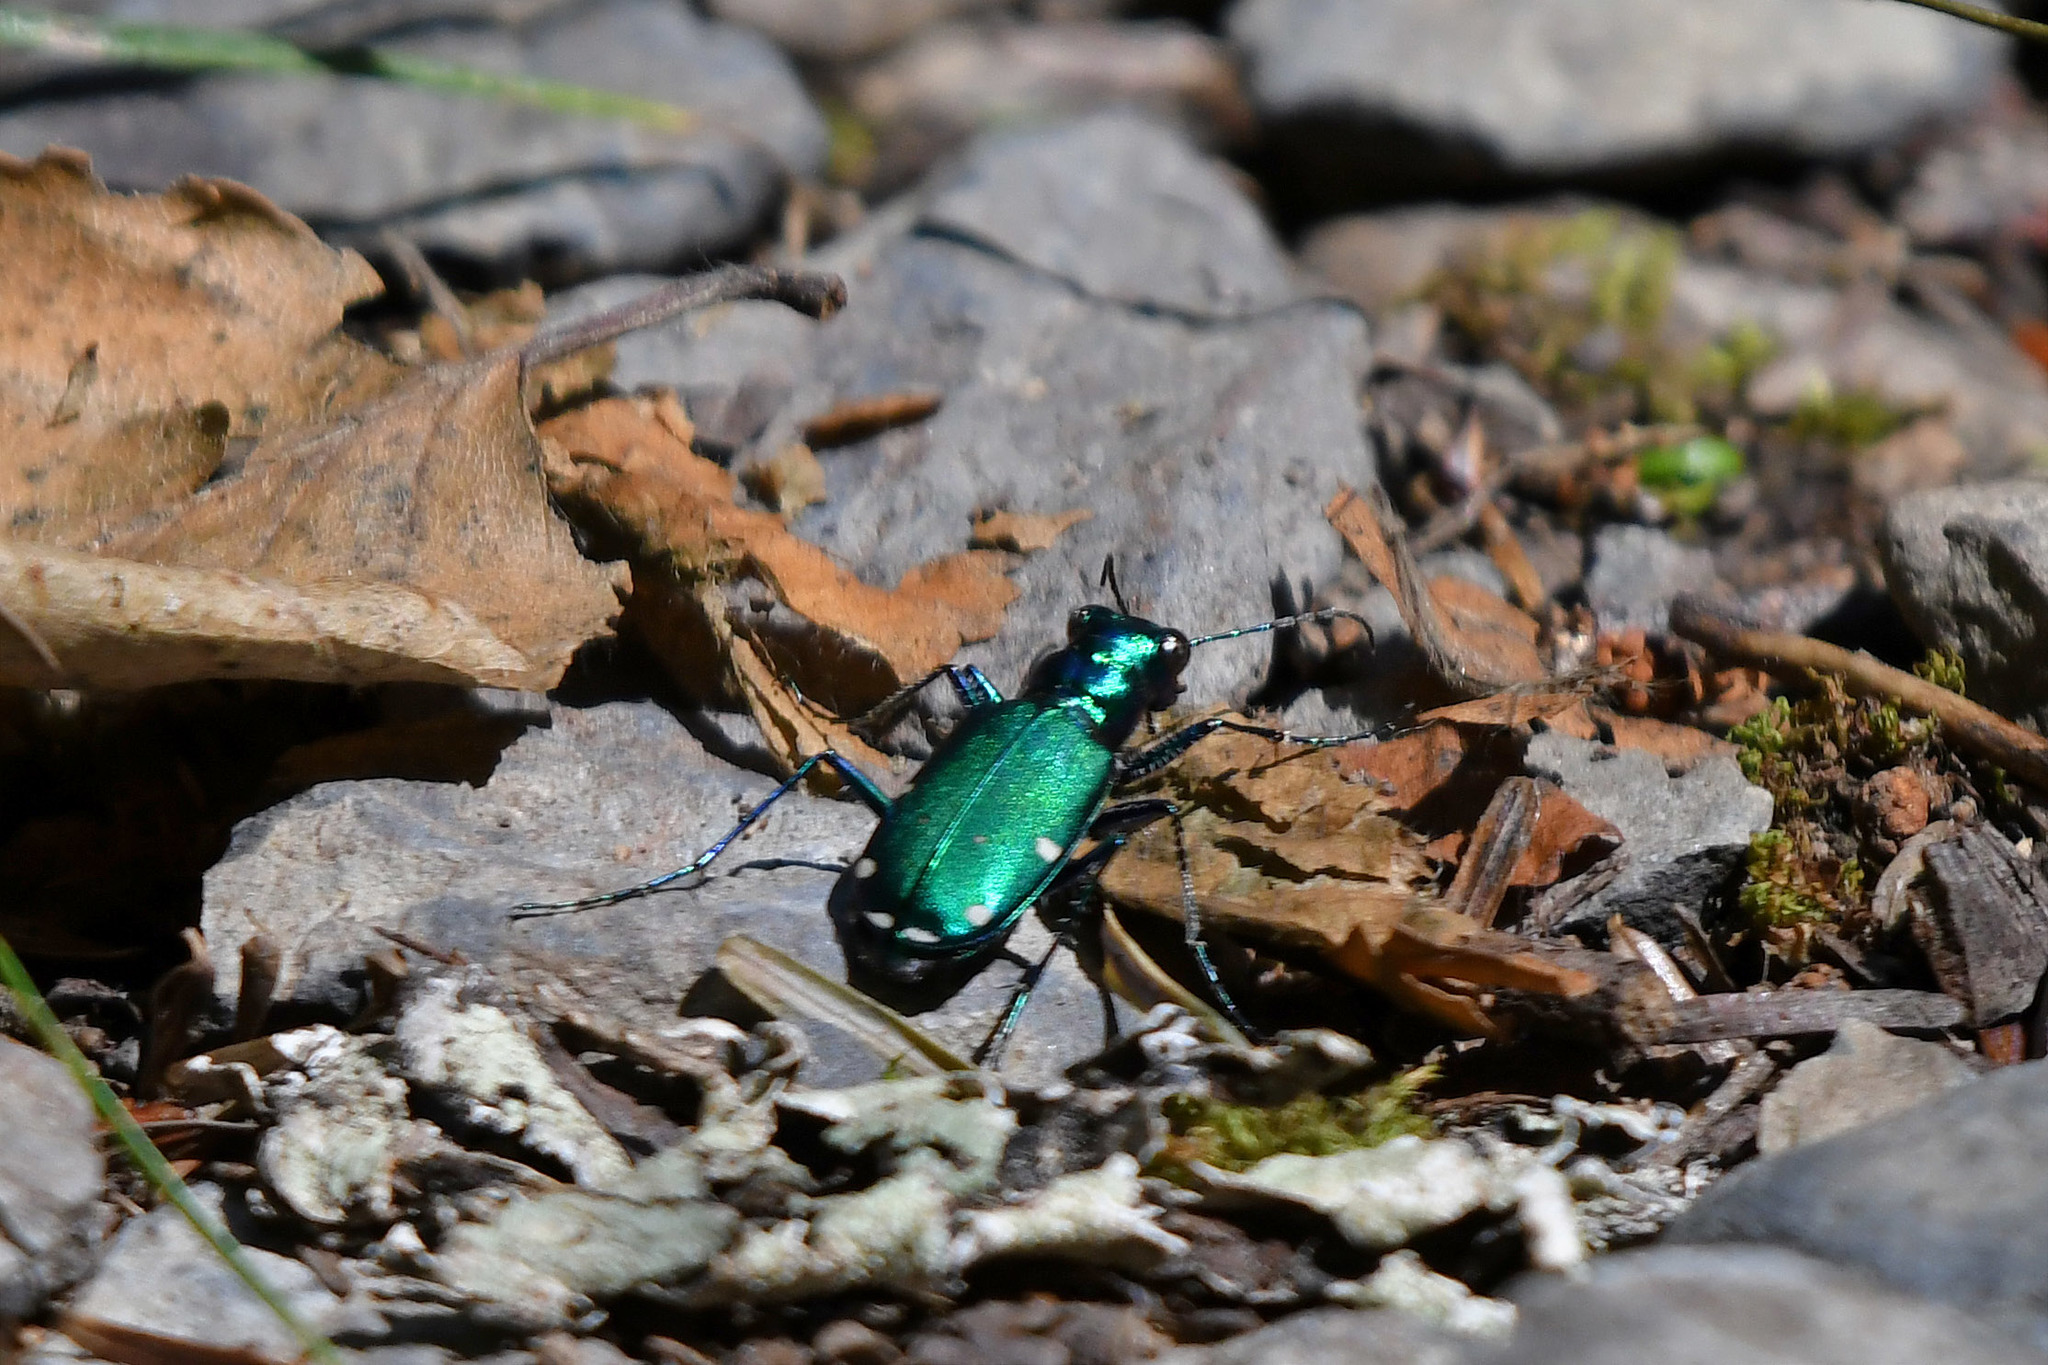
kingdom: Animalia
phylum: Arthropoda
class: Insecta
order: Coleoptera
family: Carabidae
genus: Cicindela
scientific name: Cicindela sexguttata
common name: Six-spotted tiger beetle
